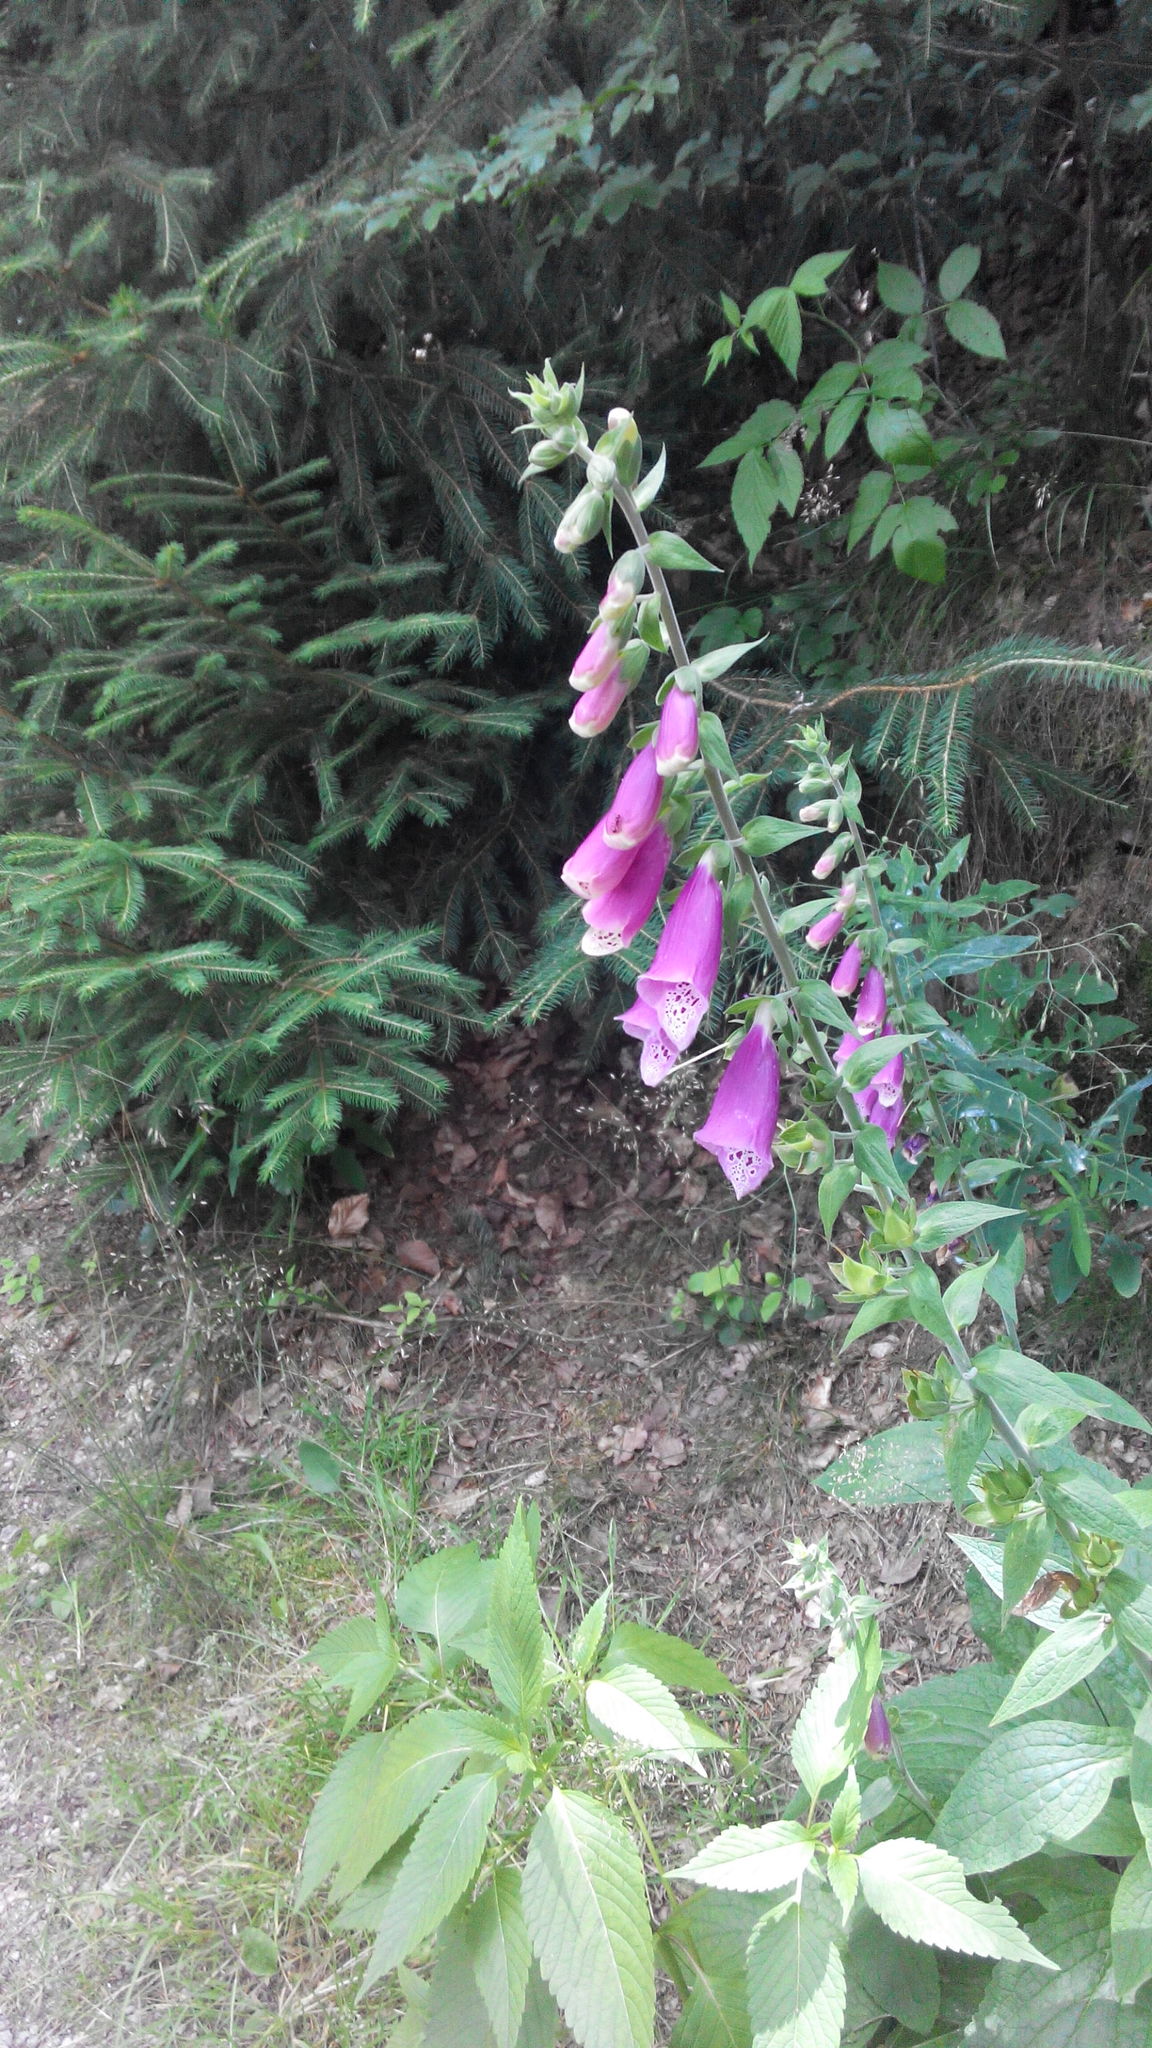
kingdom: Plantae
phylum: Tracheophyta
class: Magnoliopsida
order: Lamiales
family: Plantaginaceae
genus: Digitalis
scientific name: Digitalis purpurea
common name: Foxglove
